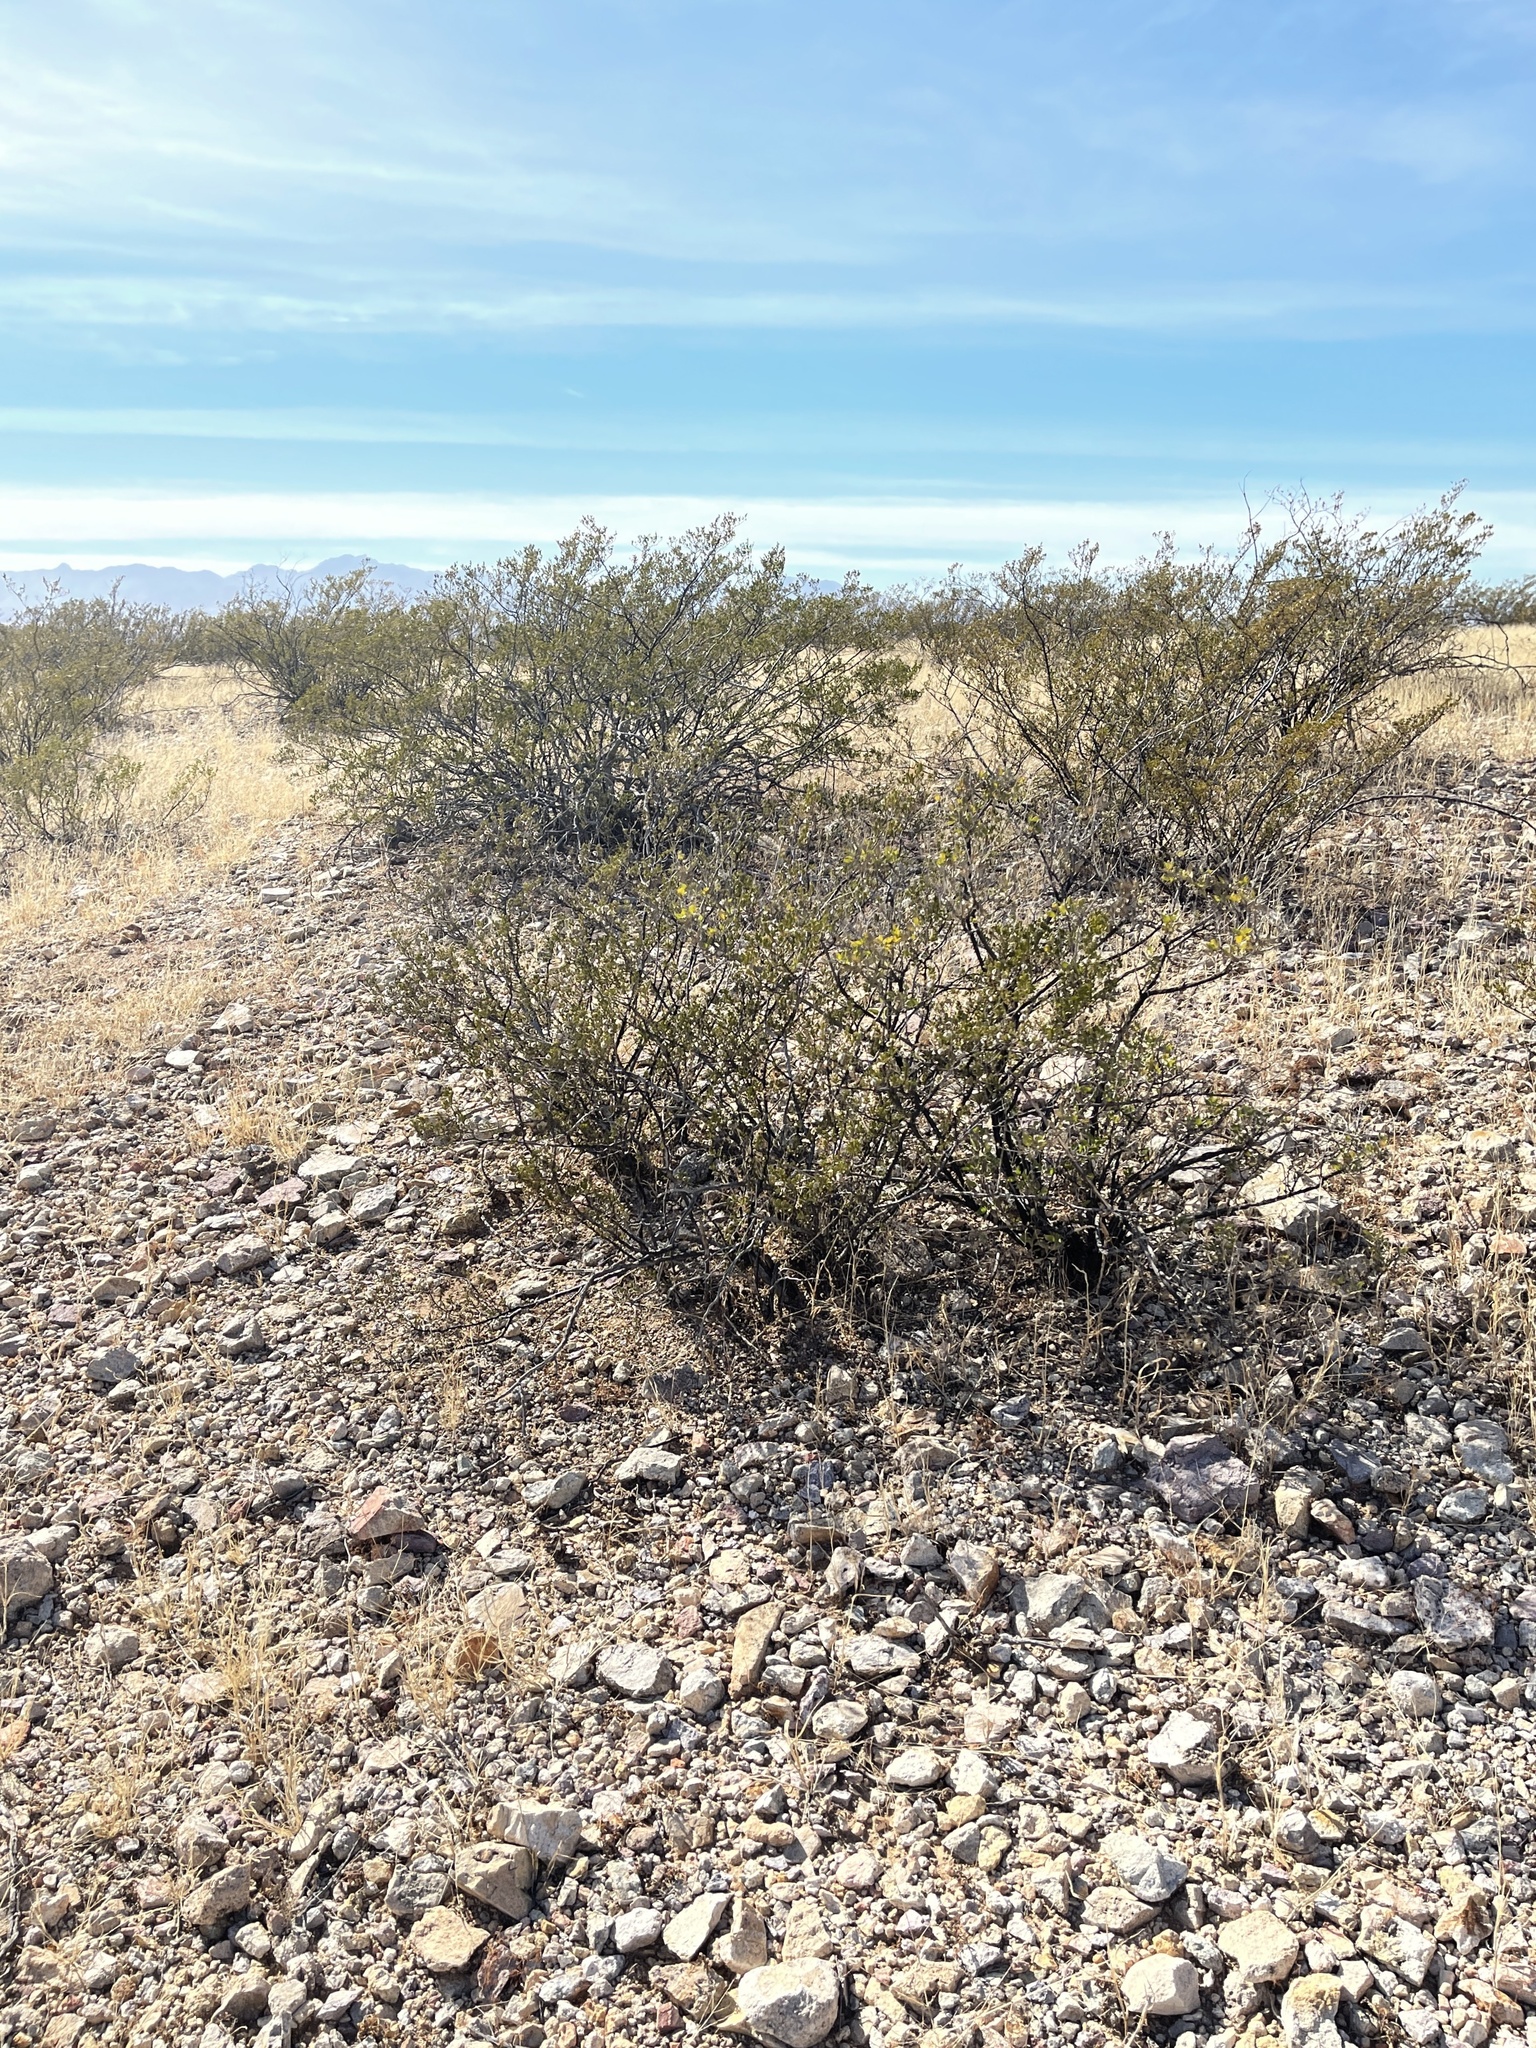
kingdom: Plantae
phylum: Tracheophyta
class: Magnoliopsida
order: Zygophyllales
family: Zygophyllaceae
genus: Larrea
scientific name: Larrea tridentata
